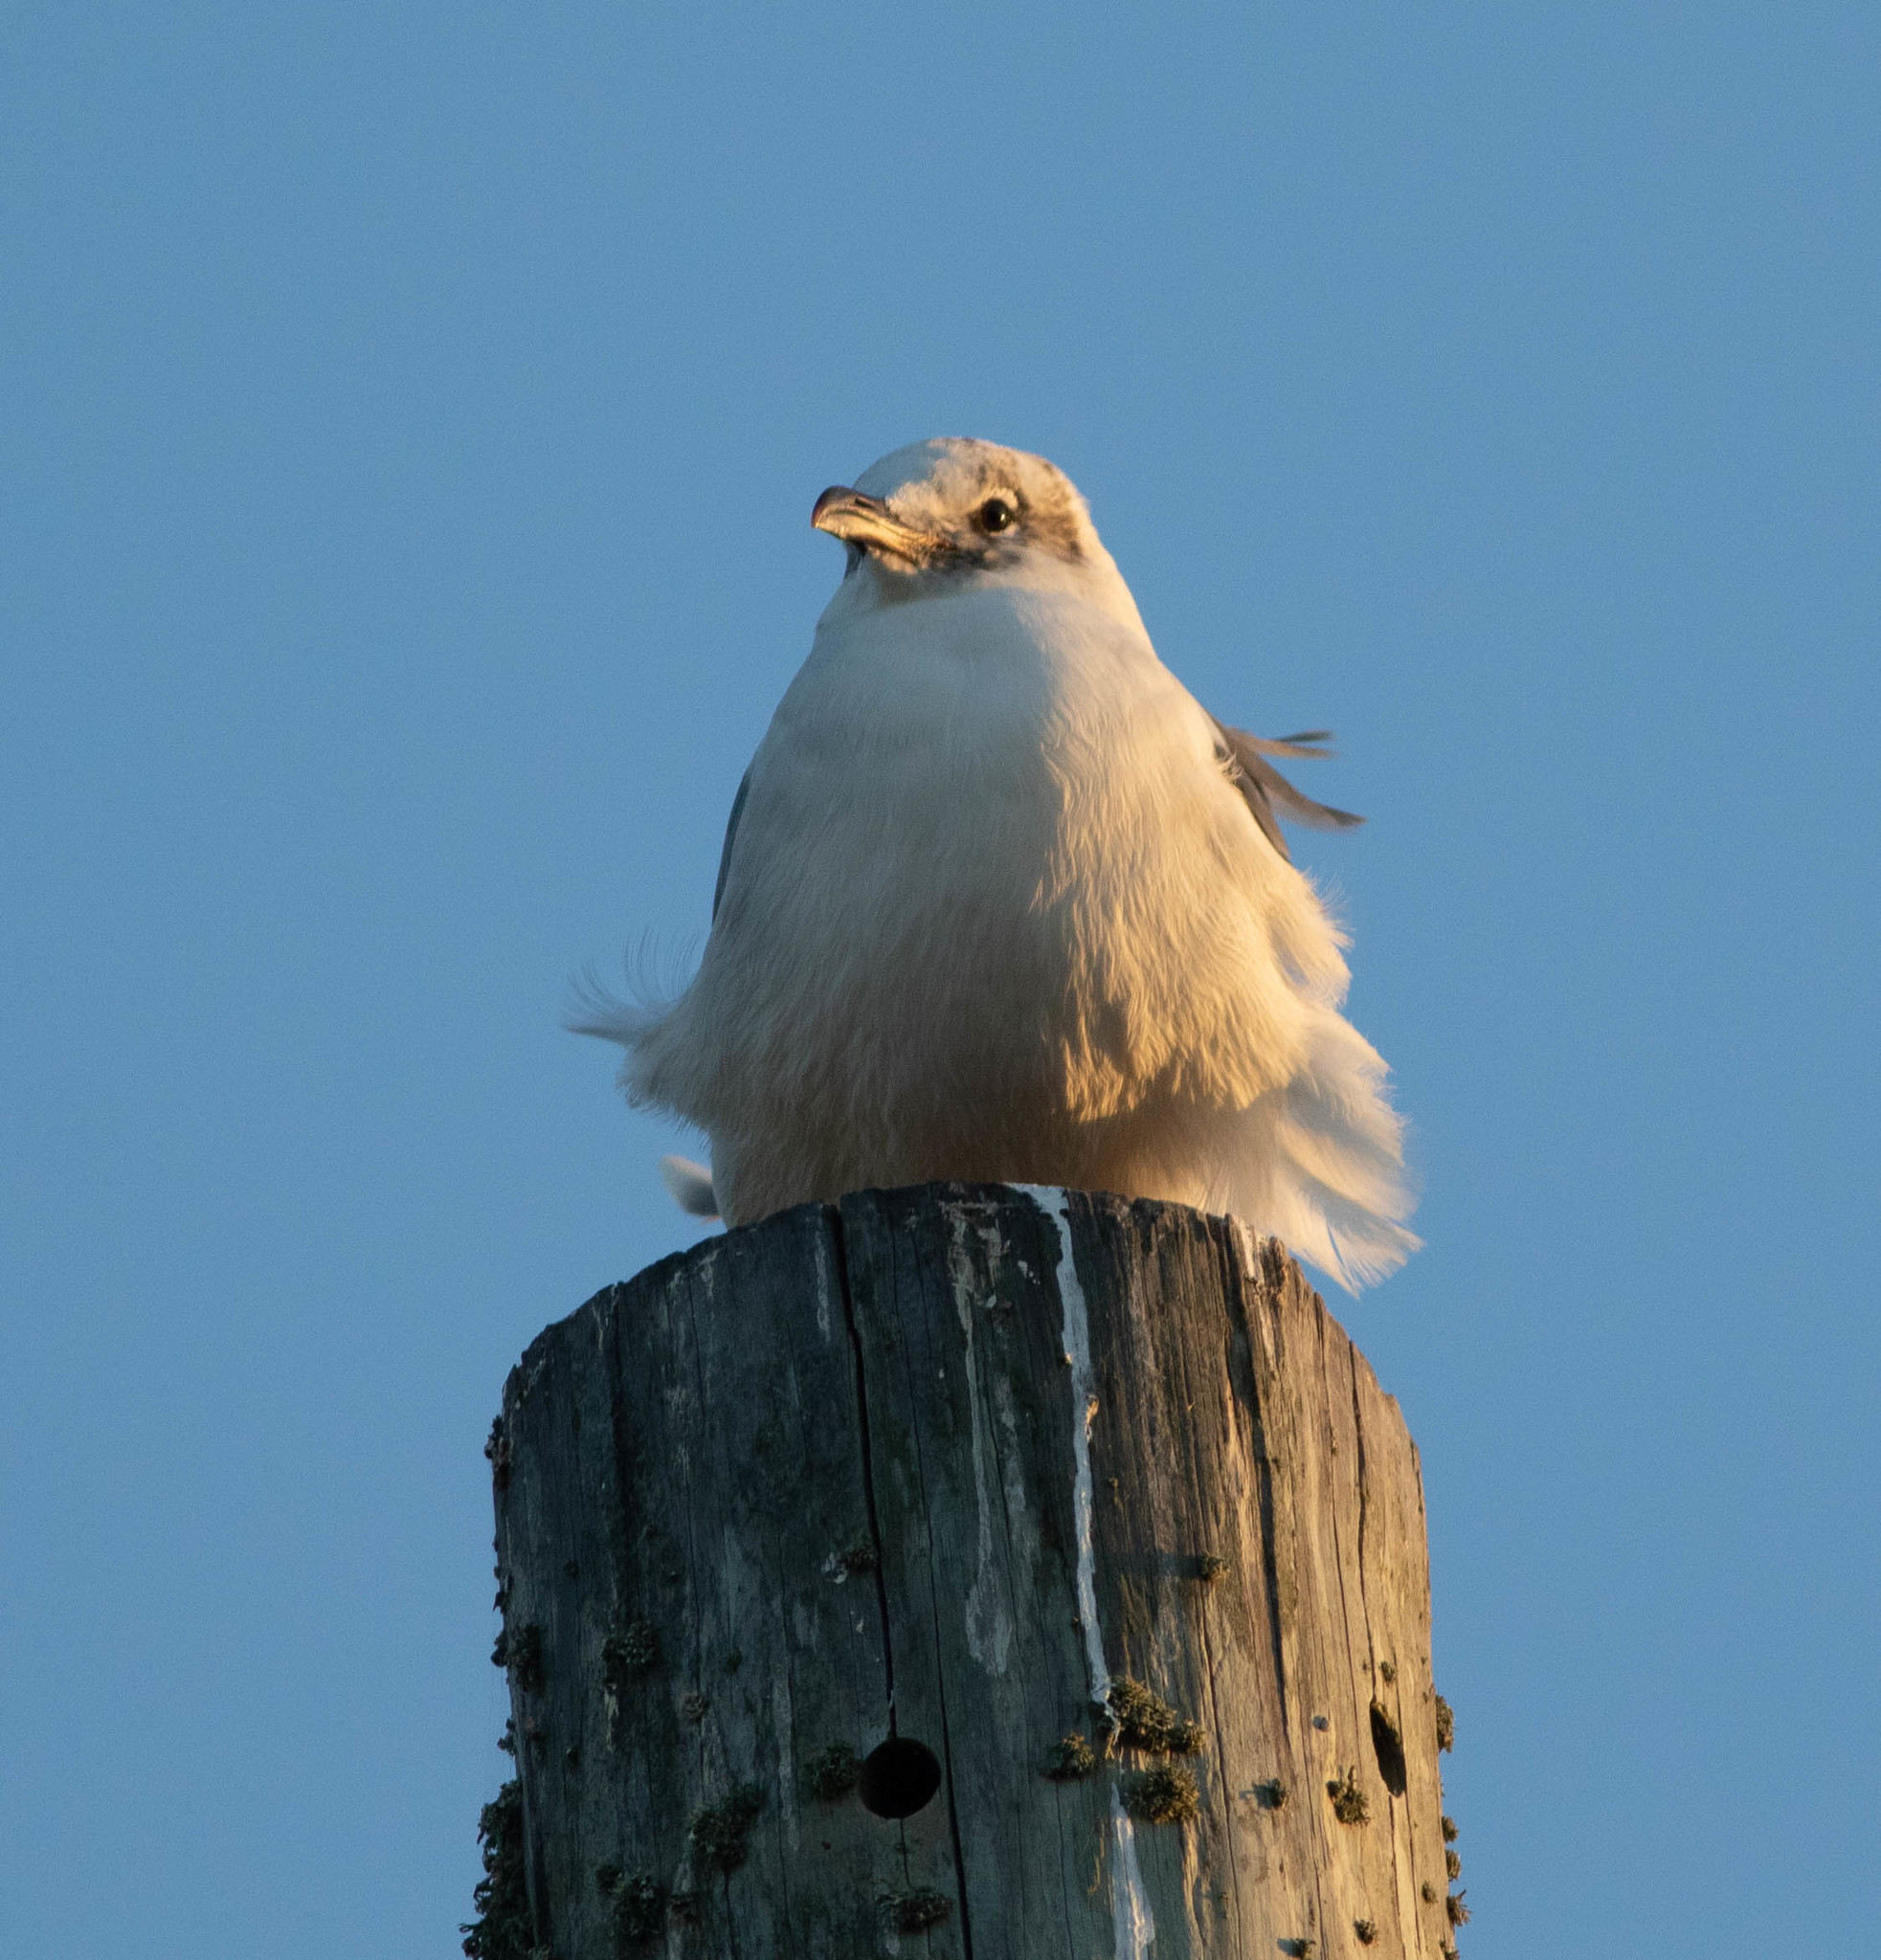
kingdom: Animalia
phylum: Chordata
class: Aves
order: Charadriiformes
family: Laridae
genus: Leucophaeus
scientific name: Leucophaeus atricilla
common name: Laughing gull
